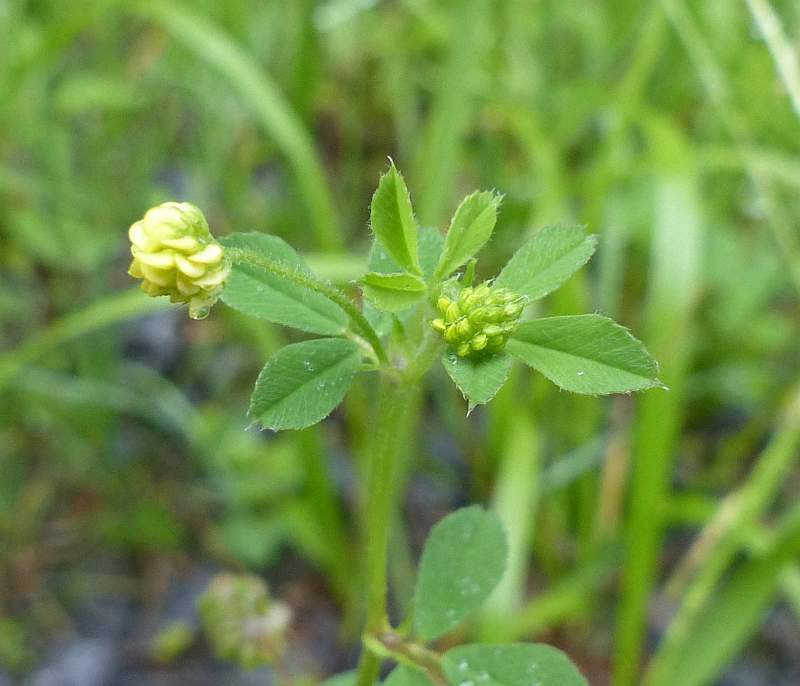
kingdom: Plantae
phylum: Tracheophyta
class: Magnoliopsida
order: Fabales
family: Fabaceae
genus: Medicago
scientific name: Medicago lupulina
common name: Black medick
